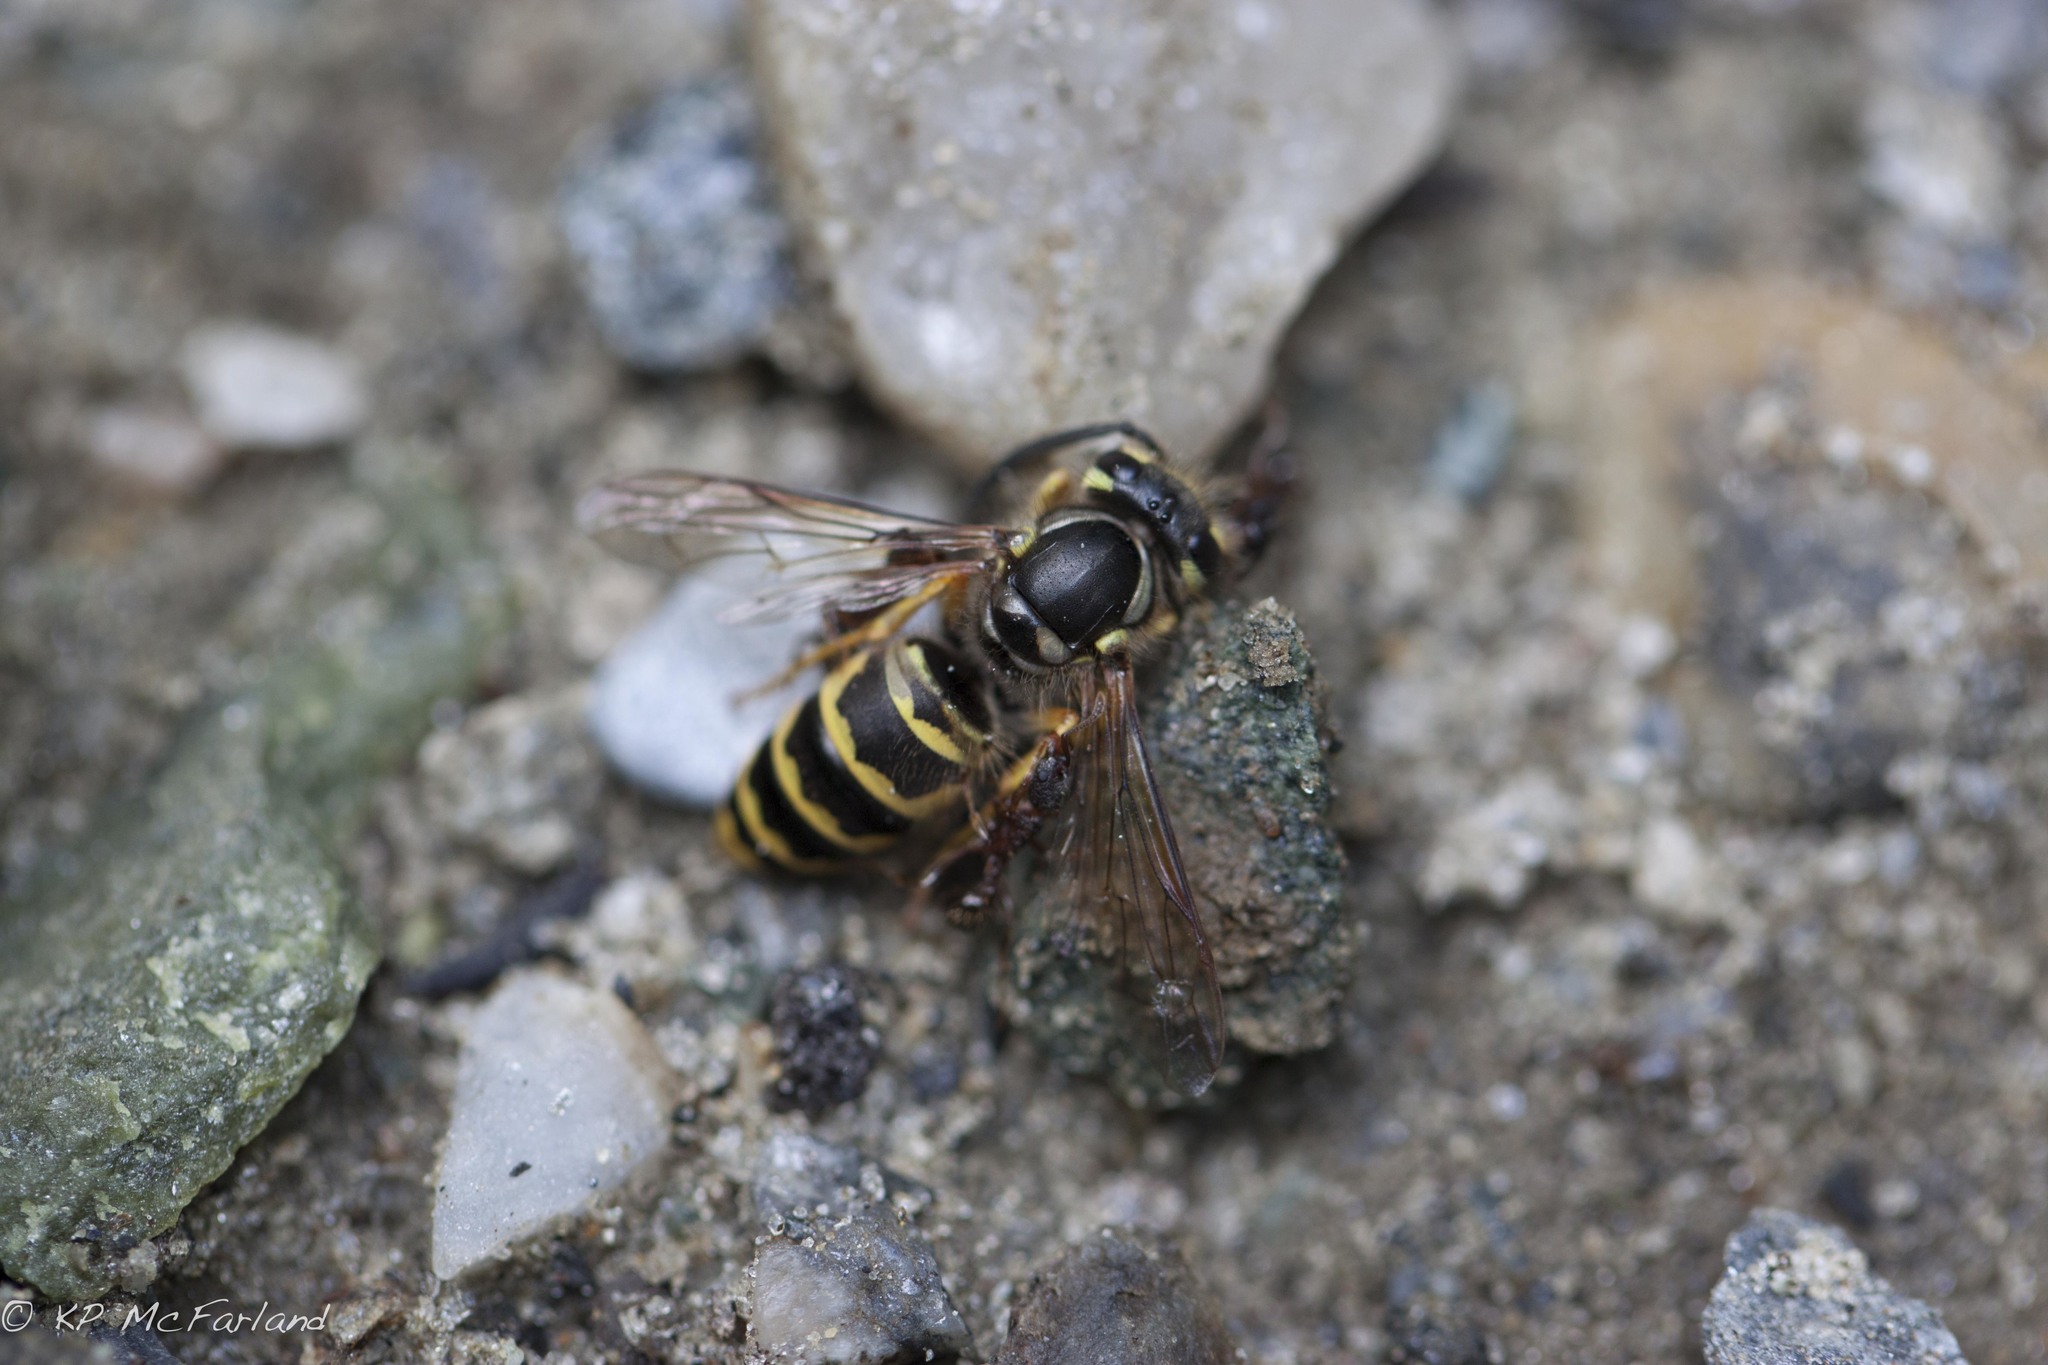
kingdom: Animalia
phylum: Arthropoda
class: Insecta
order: Hymenoptera
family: Vespidae
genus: Vespula
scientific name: Vespula maculifrons
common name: Eastern yellowjacket
